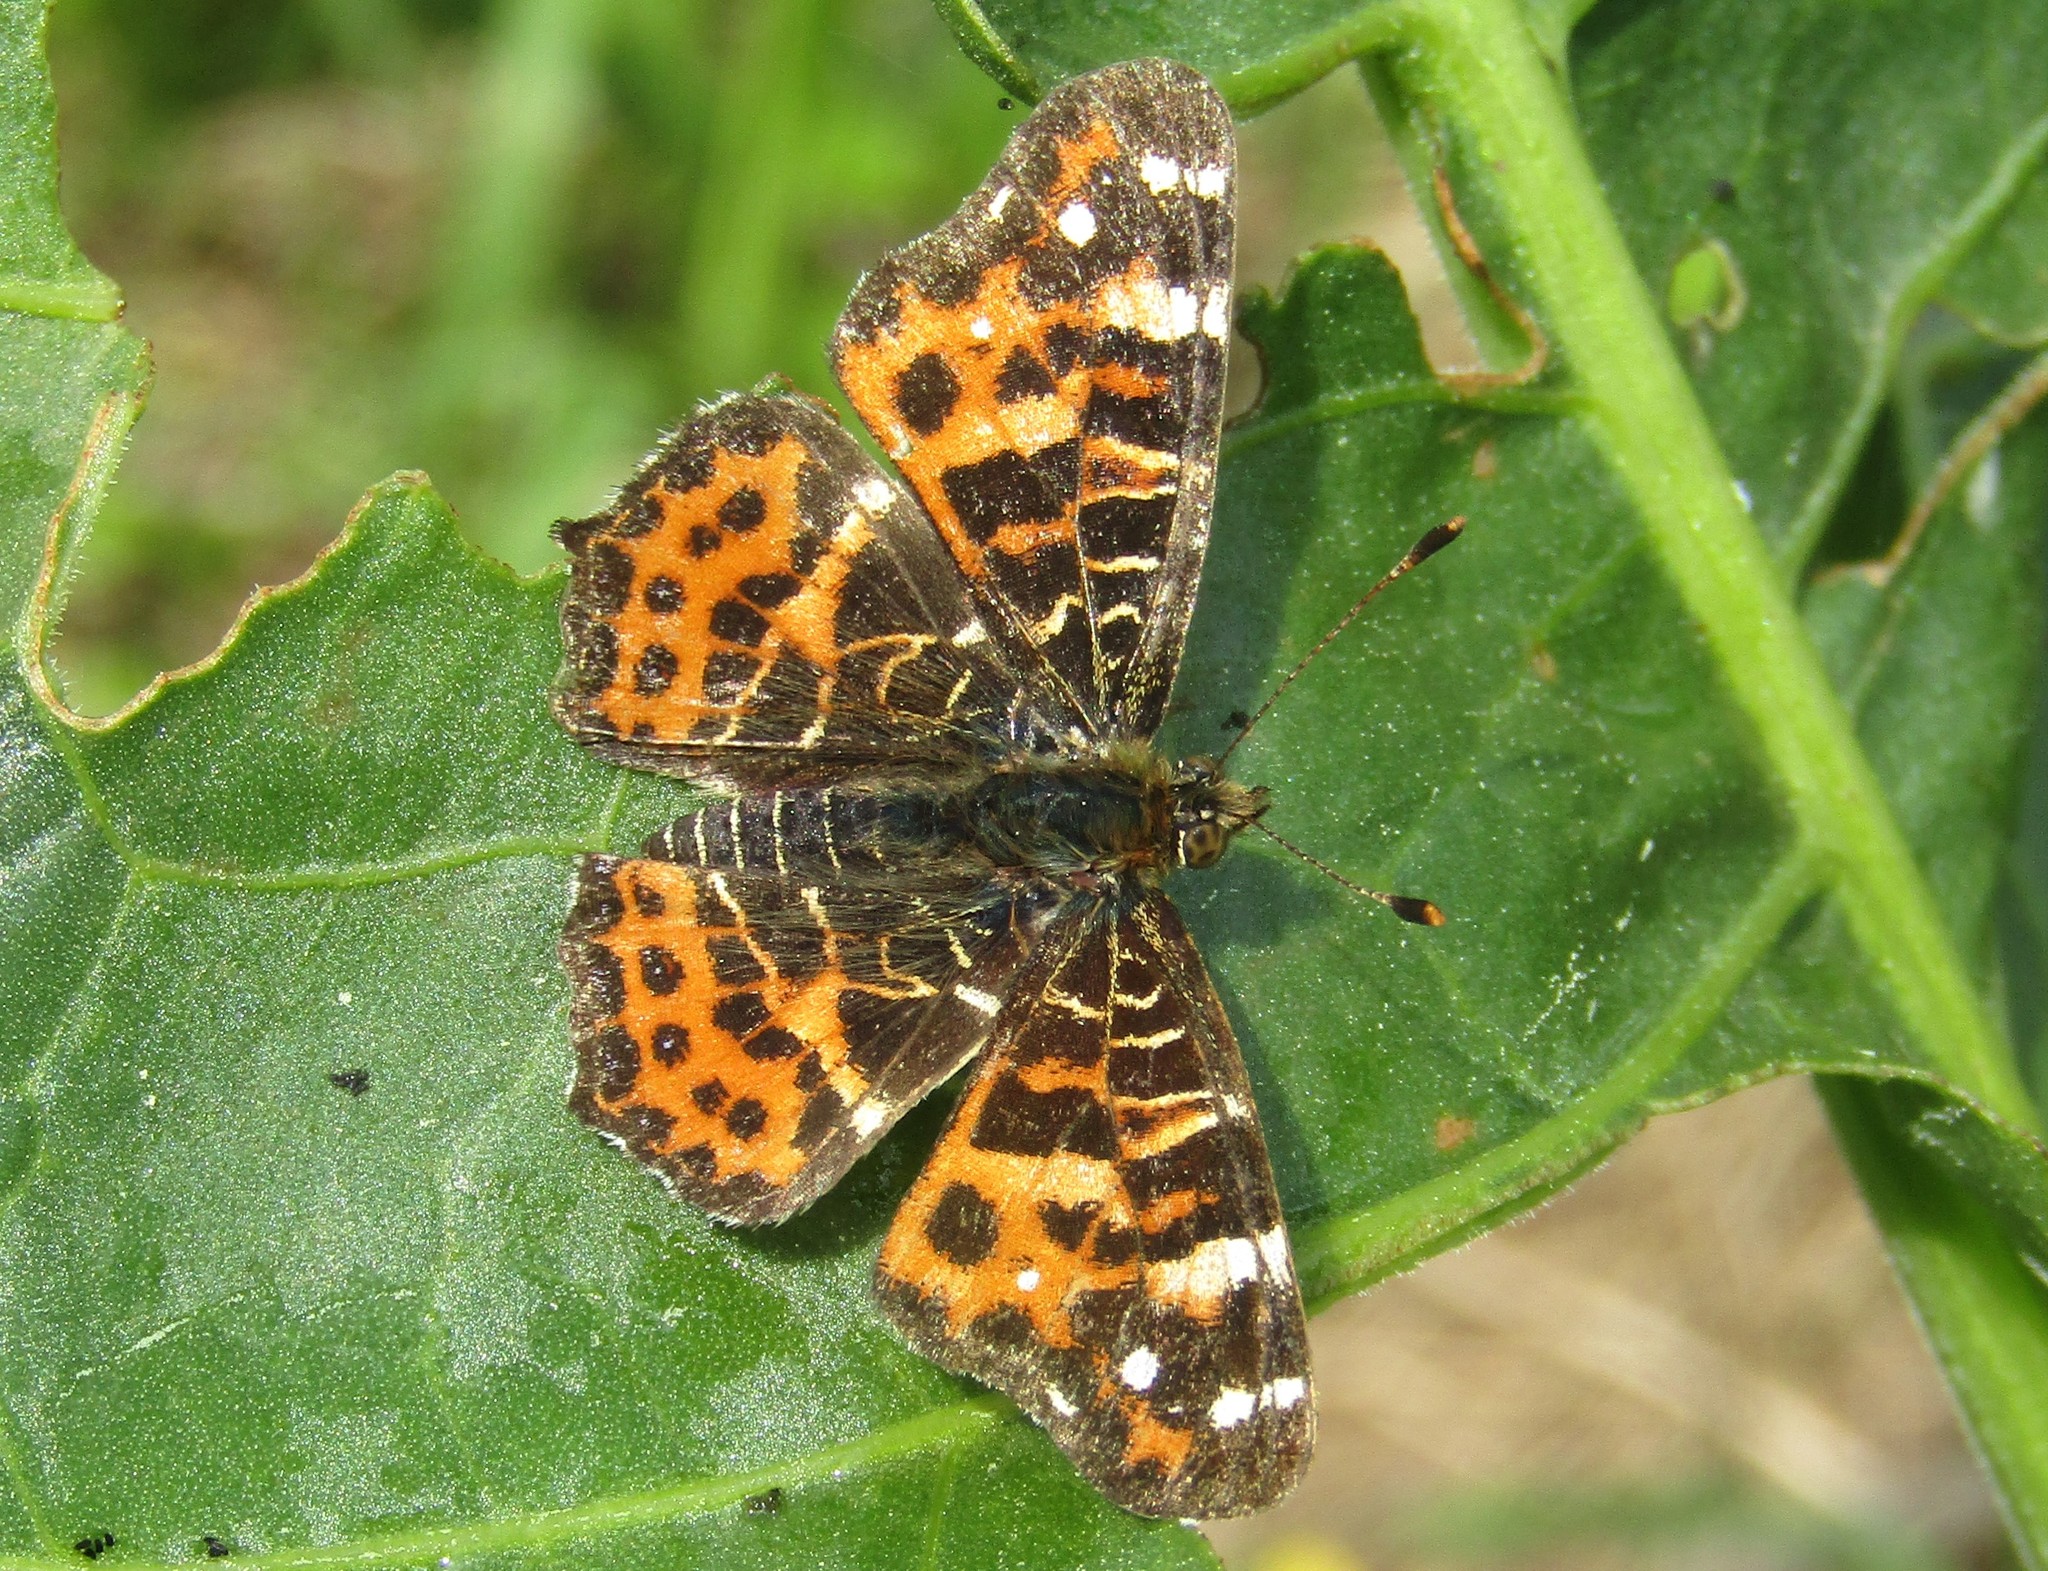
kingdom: Animalia
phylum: Arthropoda
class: Insecta
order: Lepidoptera
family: Nymphalidae
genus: Araschnia
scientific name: Araschnia levana
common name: Map butterfly
